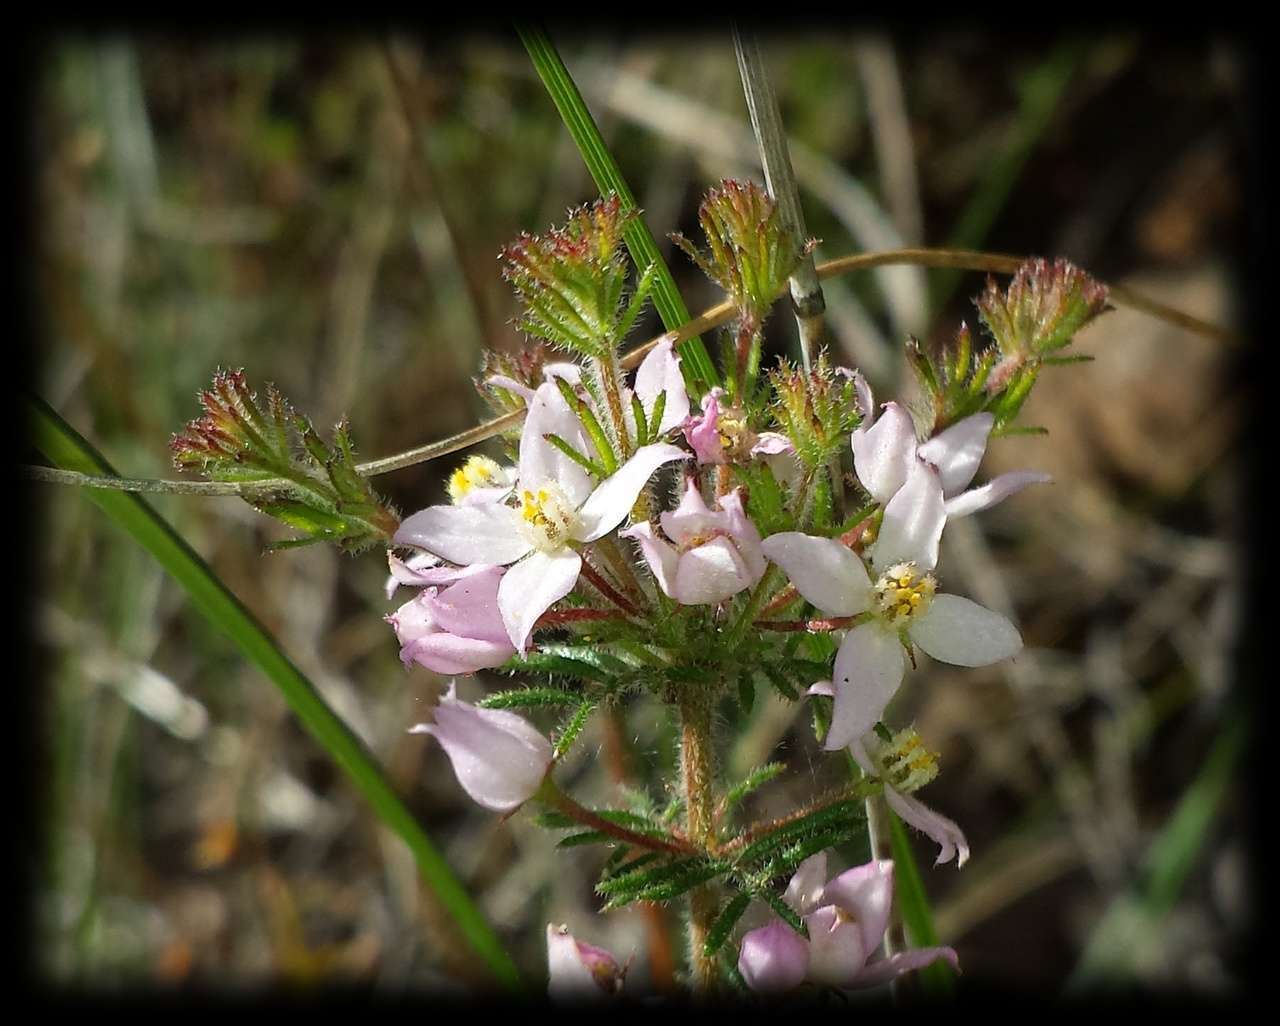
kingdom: Plantae
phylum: Tracheophyta
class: Magnoliopsida
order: Sapindales
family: Rutaceae
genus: Boronia
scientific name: Boronia pilosa
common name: Hairy boronia
